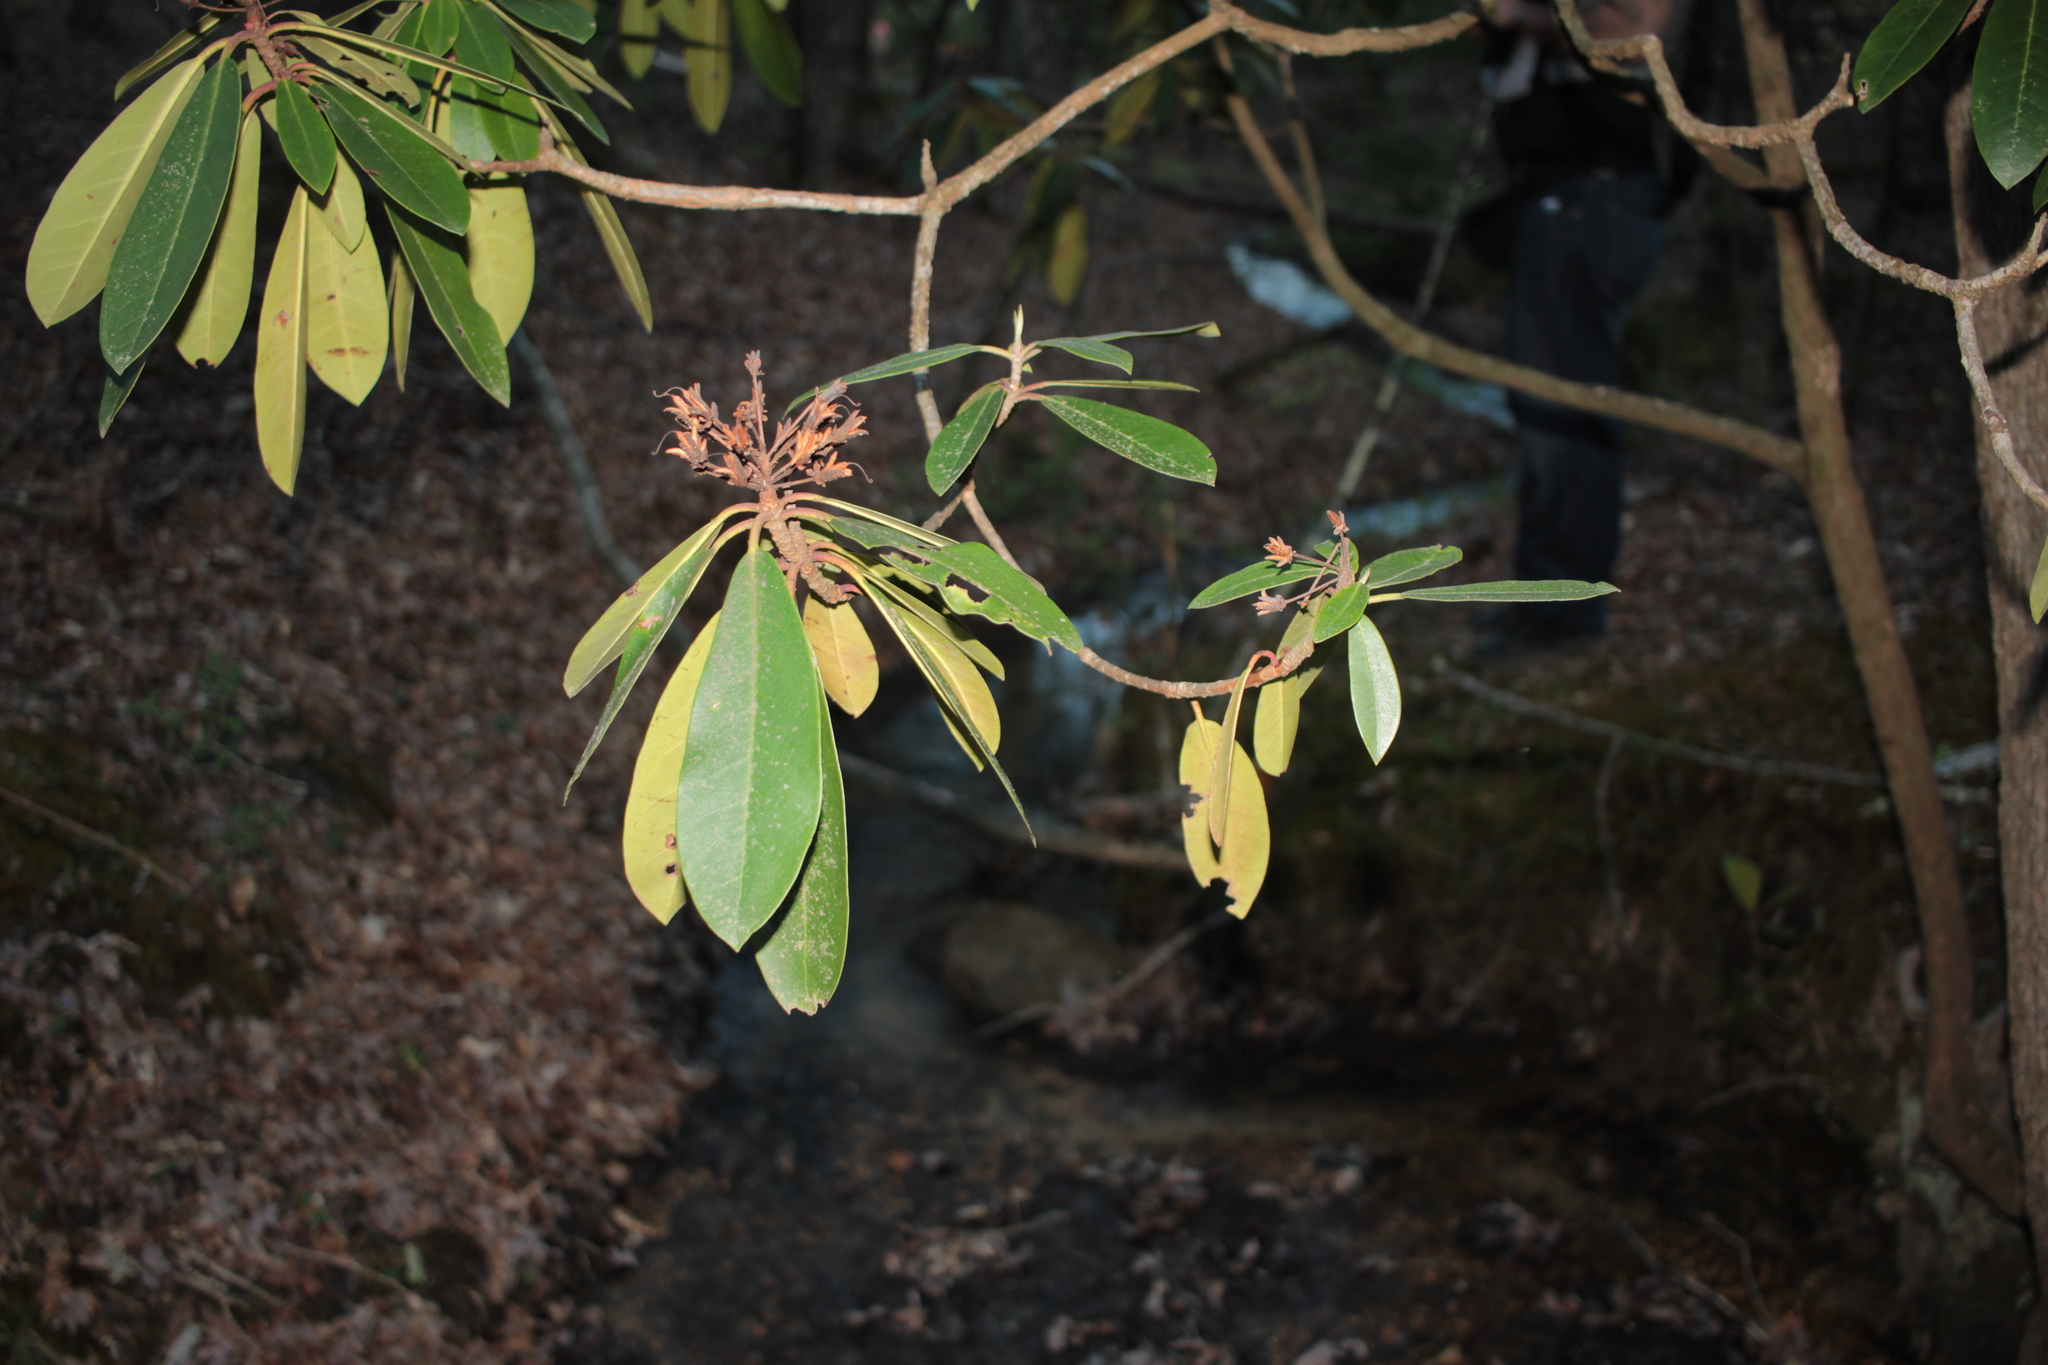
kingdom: Plantae
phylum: Tracheophyta
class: Magnoliopsida
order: Ericales
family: Ericaceae
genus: Rhododendron
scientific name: Rhododendron maximum
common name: Great rhododendron
